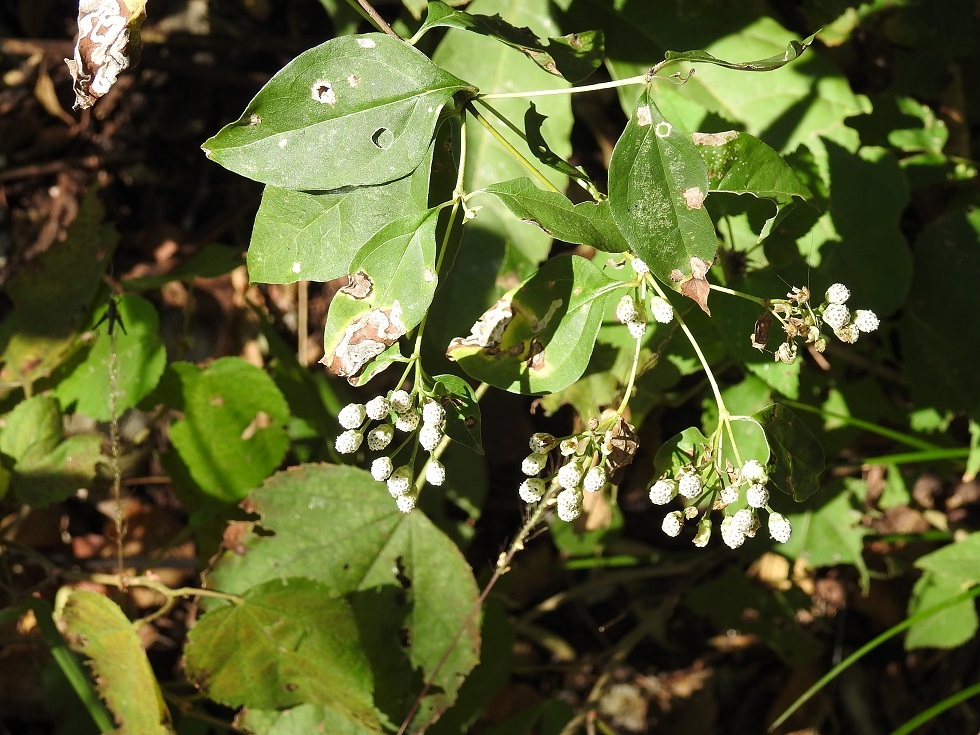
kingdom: Plantae
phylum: Tracheophyta
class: Magnoliopsida
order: Asterales
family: Asteraceae
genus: Salmea
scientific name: Salmea scandens
